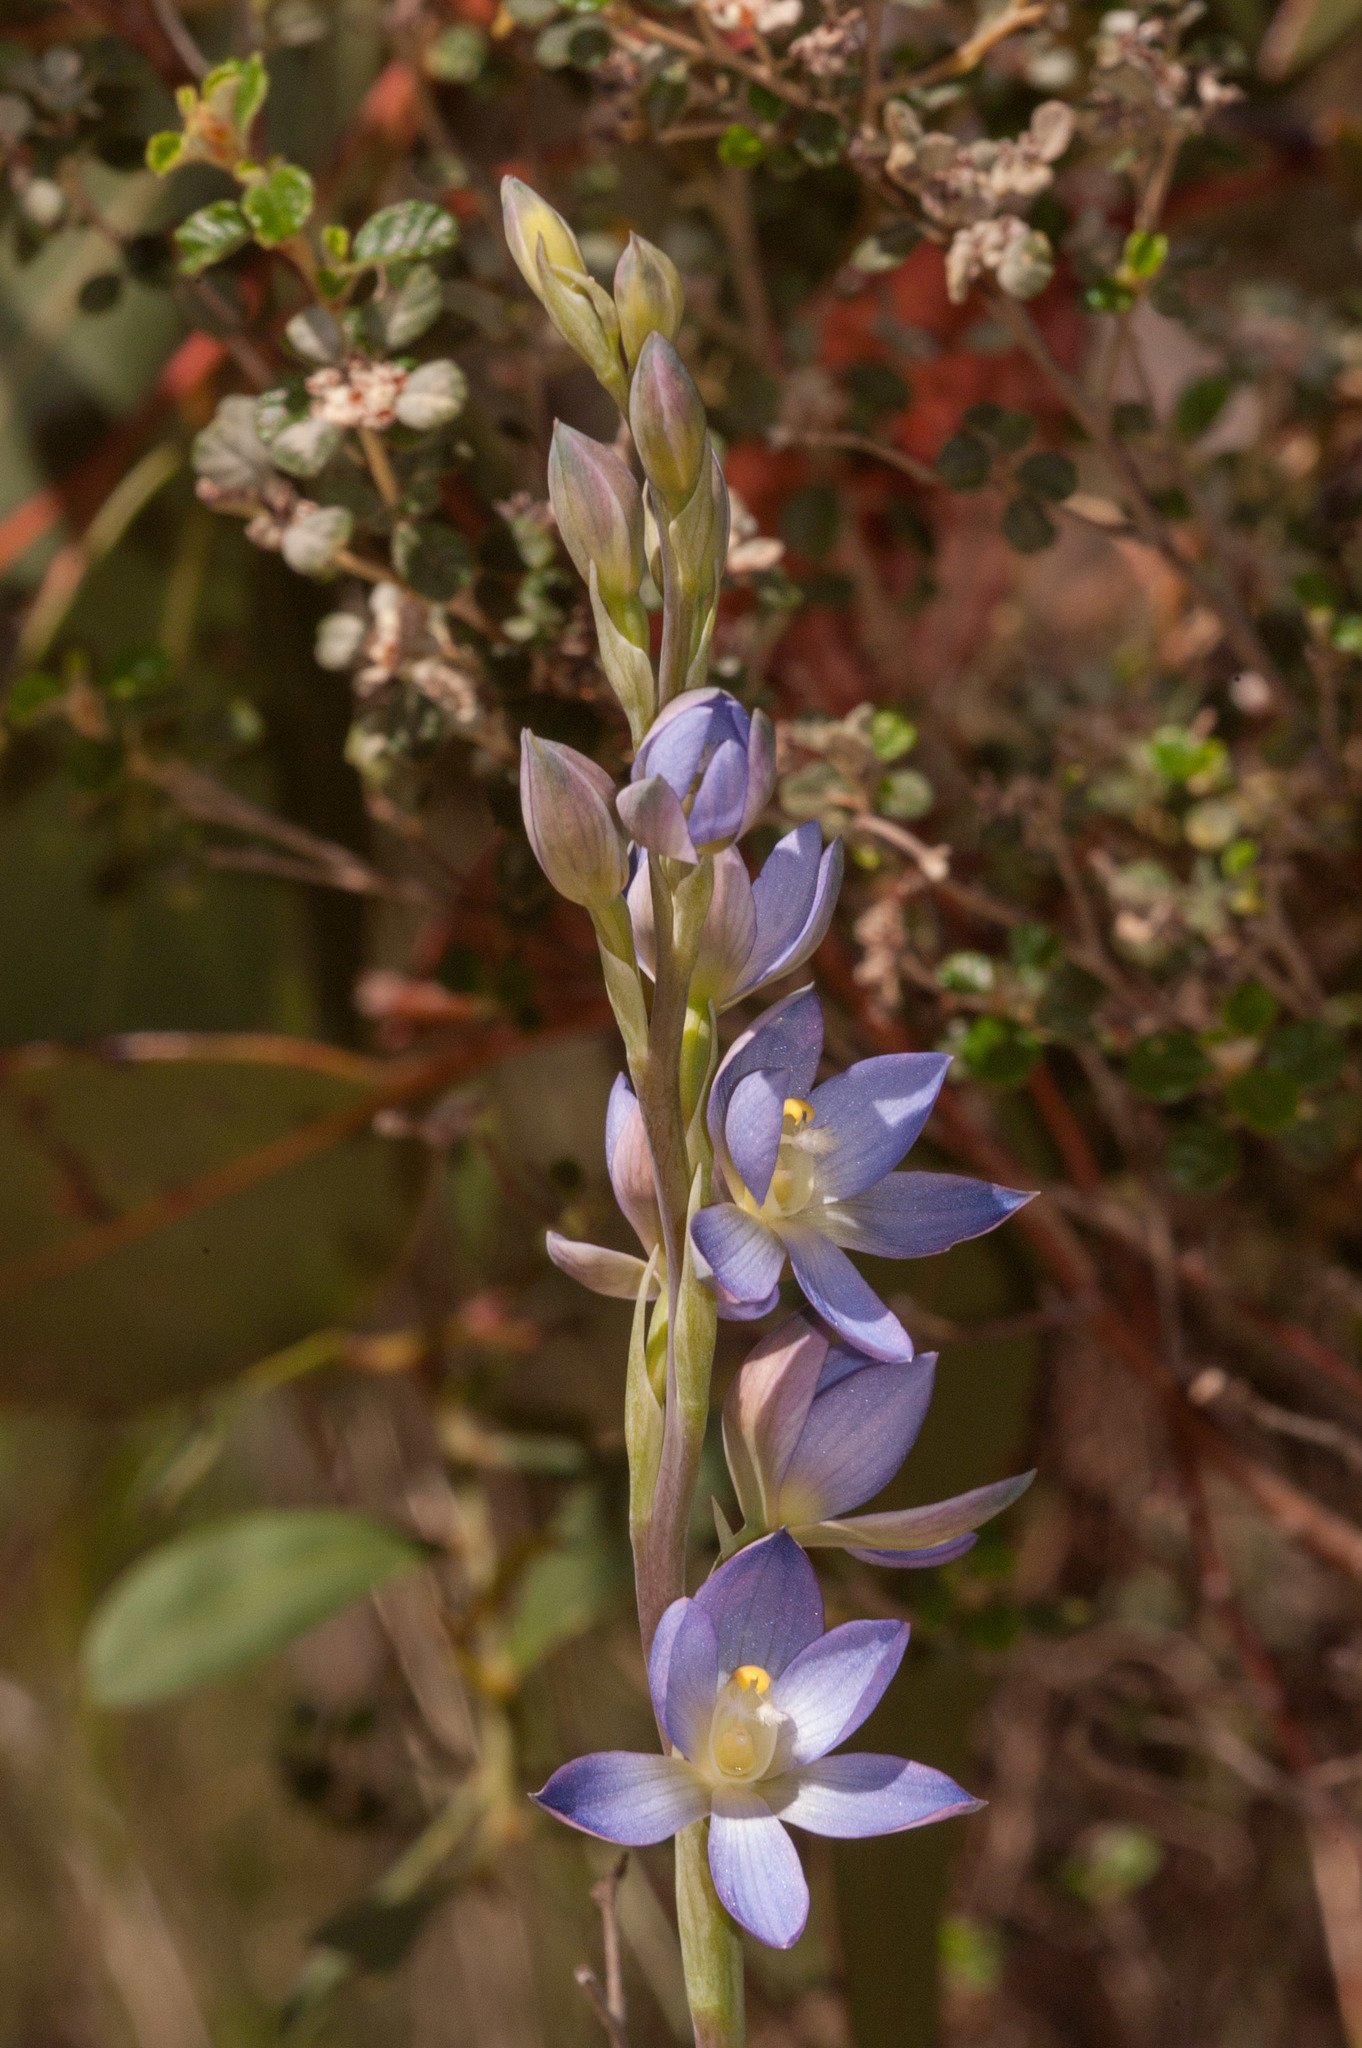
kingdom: Plantae
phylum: Tracheophyta
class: Liliopsida
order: Asparagales
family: Orchidaceae
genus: Thelymitra
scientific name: Thelymitra grandiflora
